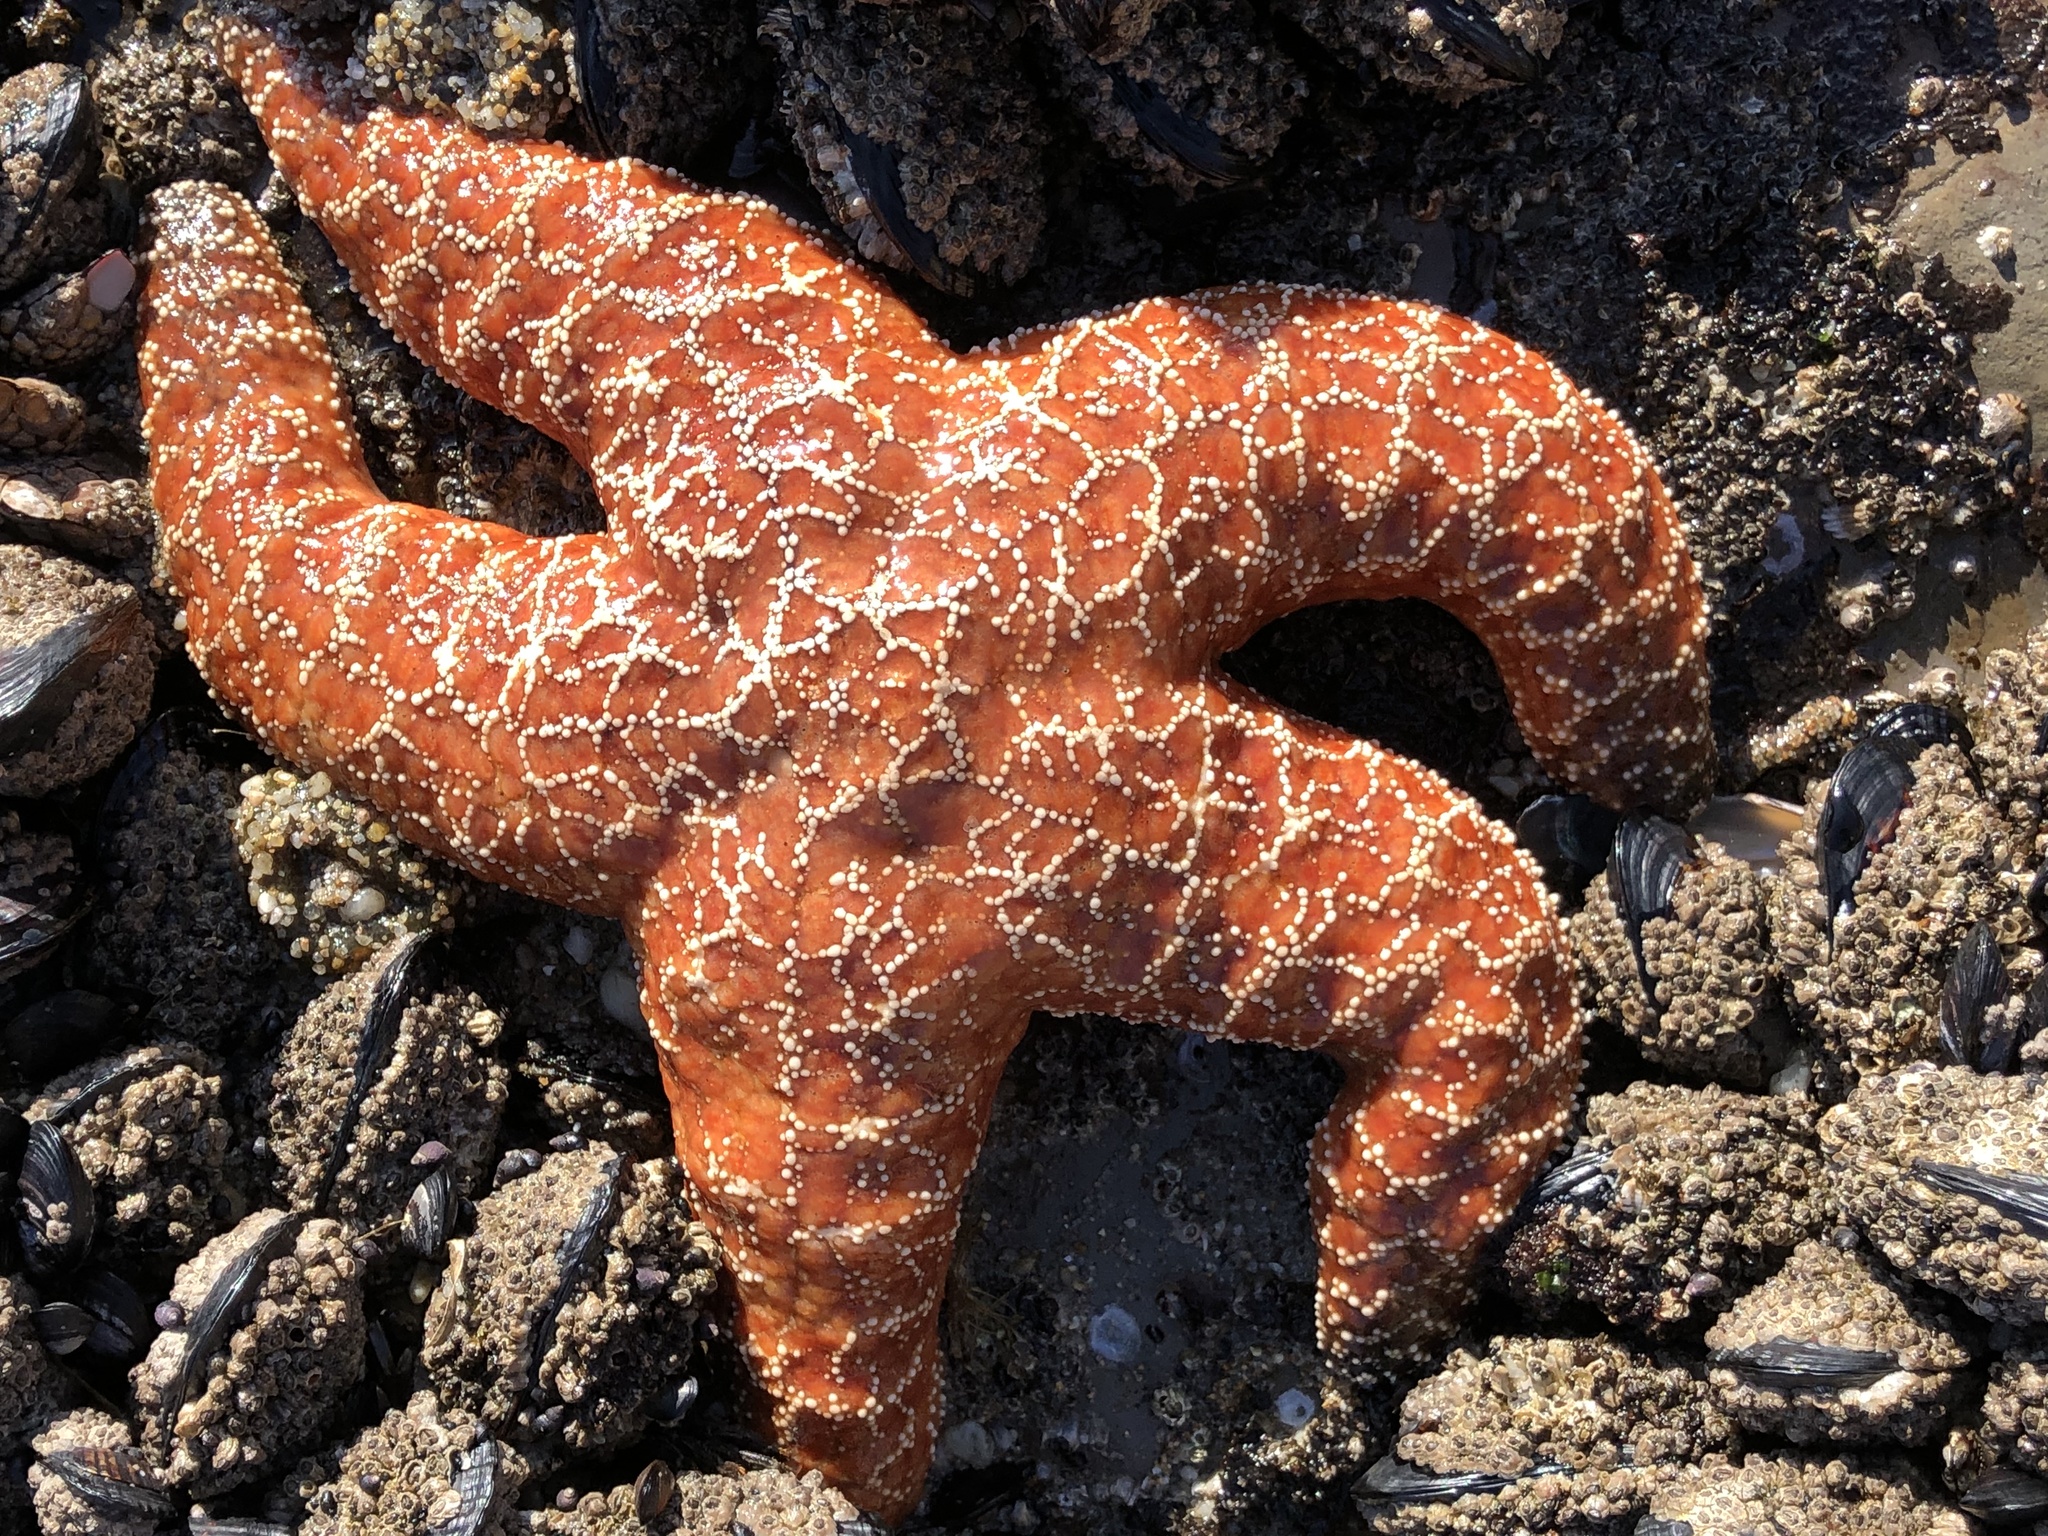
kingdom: Animalia
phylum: Echinodermata
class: Asteroidea
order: Forcipulatida
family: Asteriidae
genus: Pisaster
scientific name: Pisaster ochraceus
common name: Ochre stars
